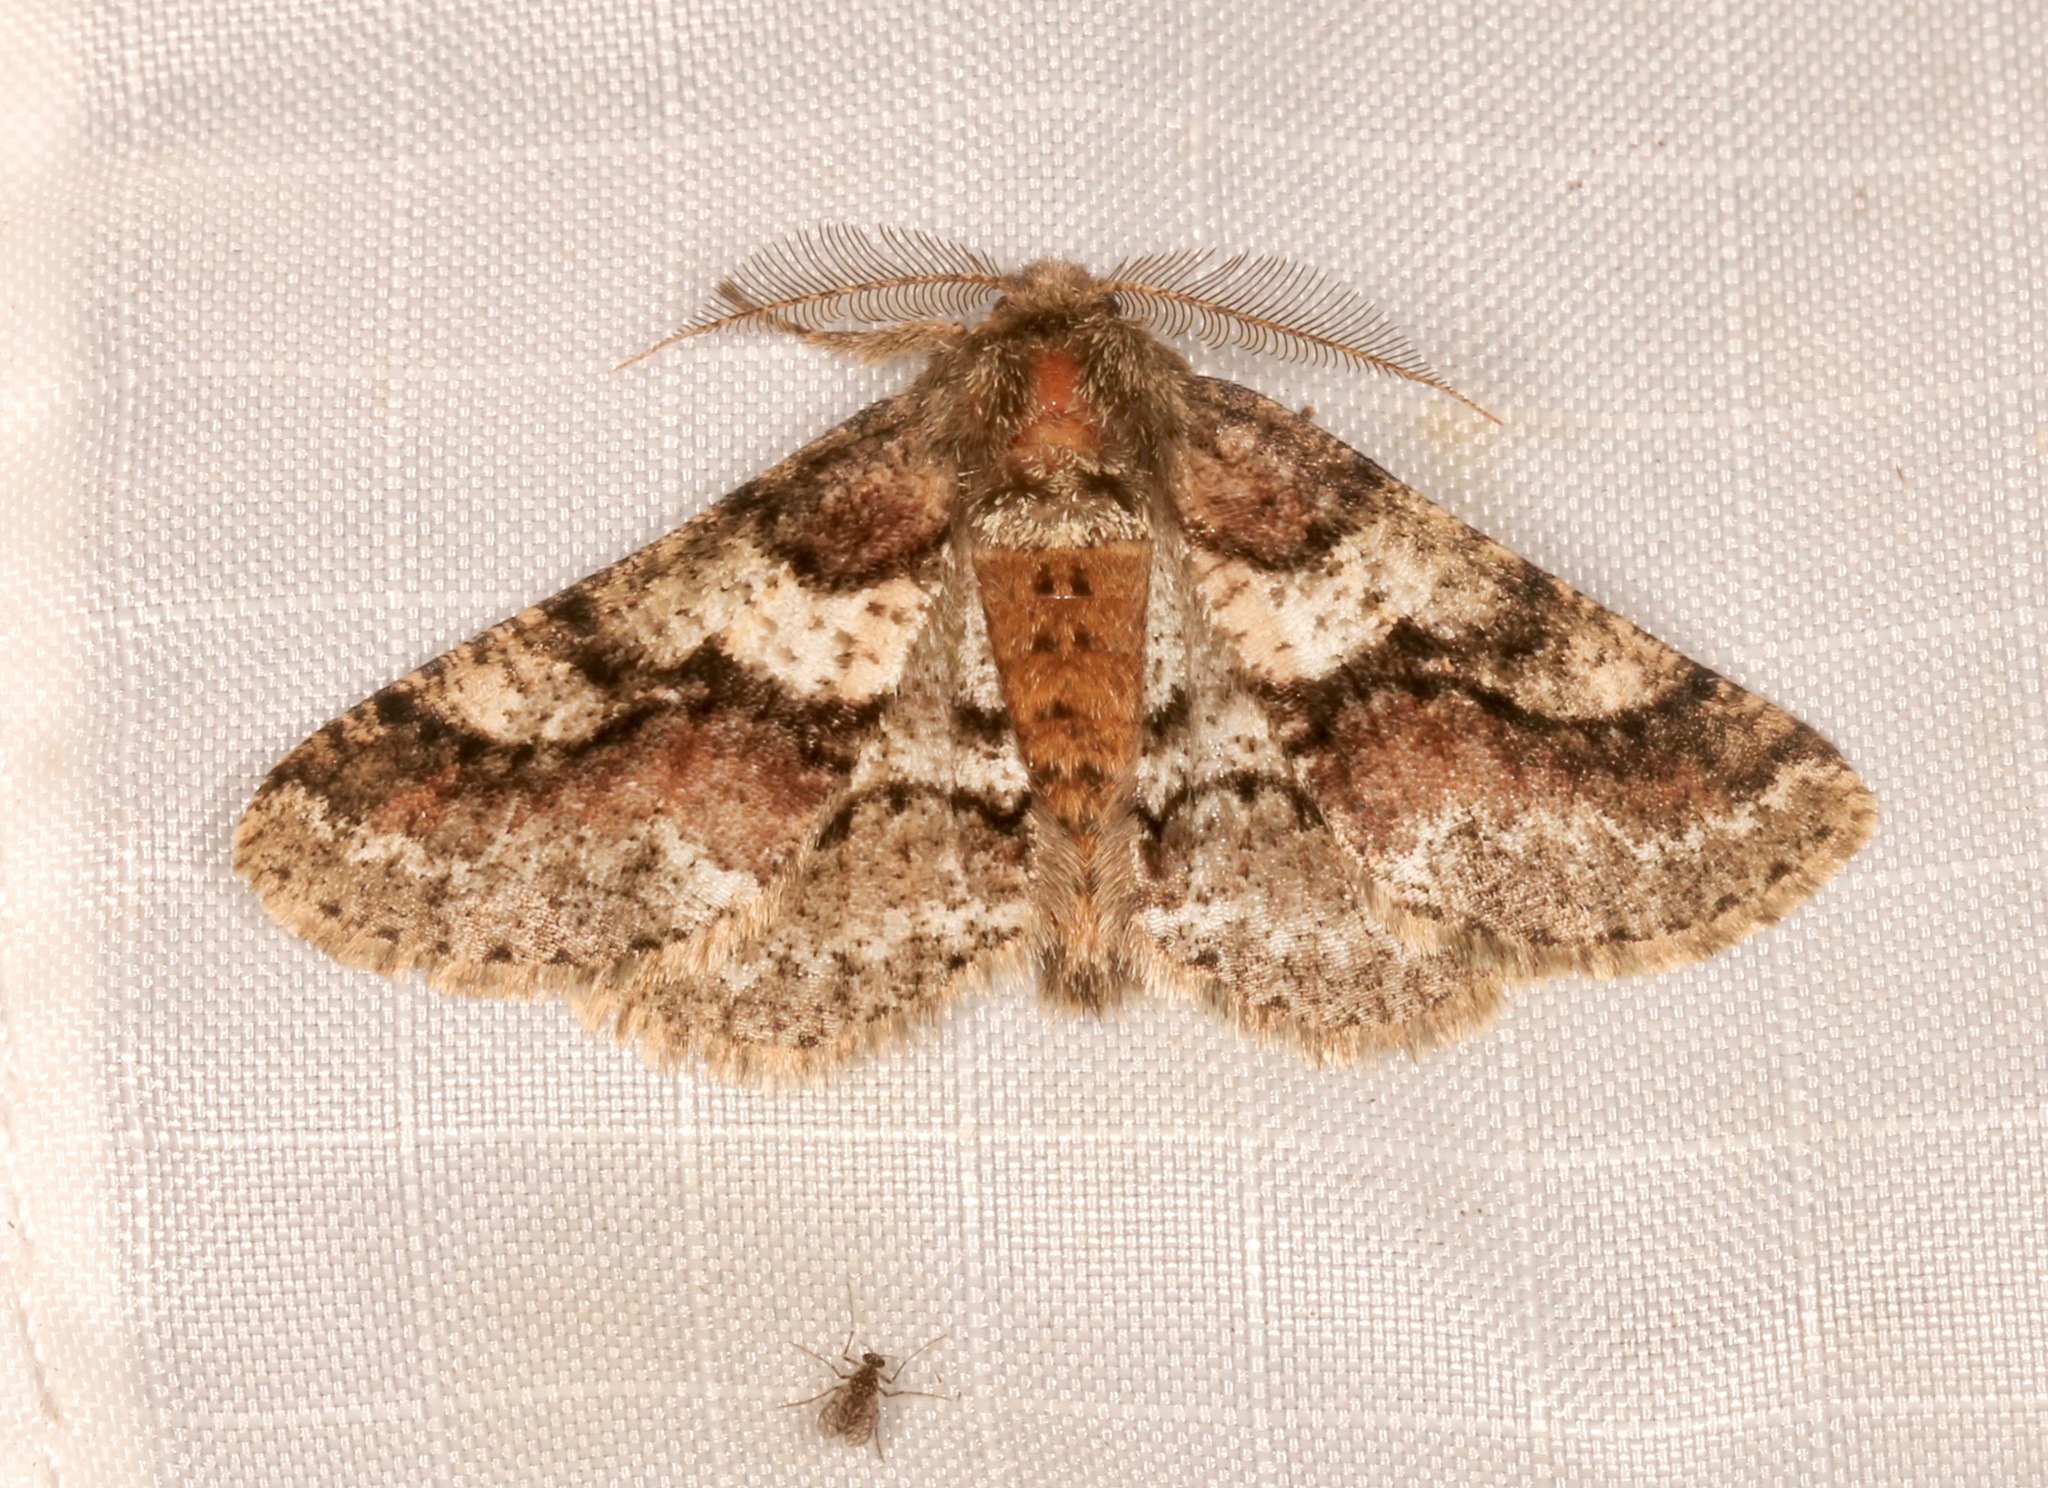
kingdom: Animalia
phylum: Arthropoda
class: Insecta
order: Lepidoptera
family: Geometridae
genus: Lycia
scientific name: Lycia ypsilon
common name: Wooly gray
